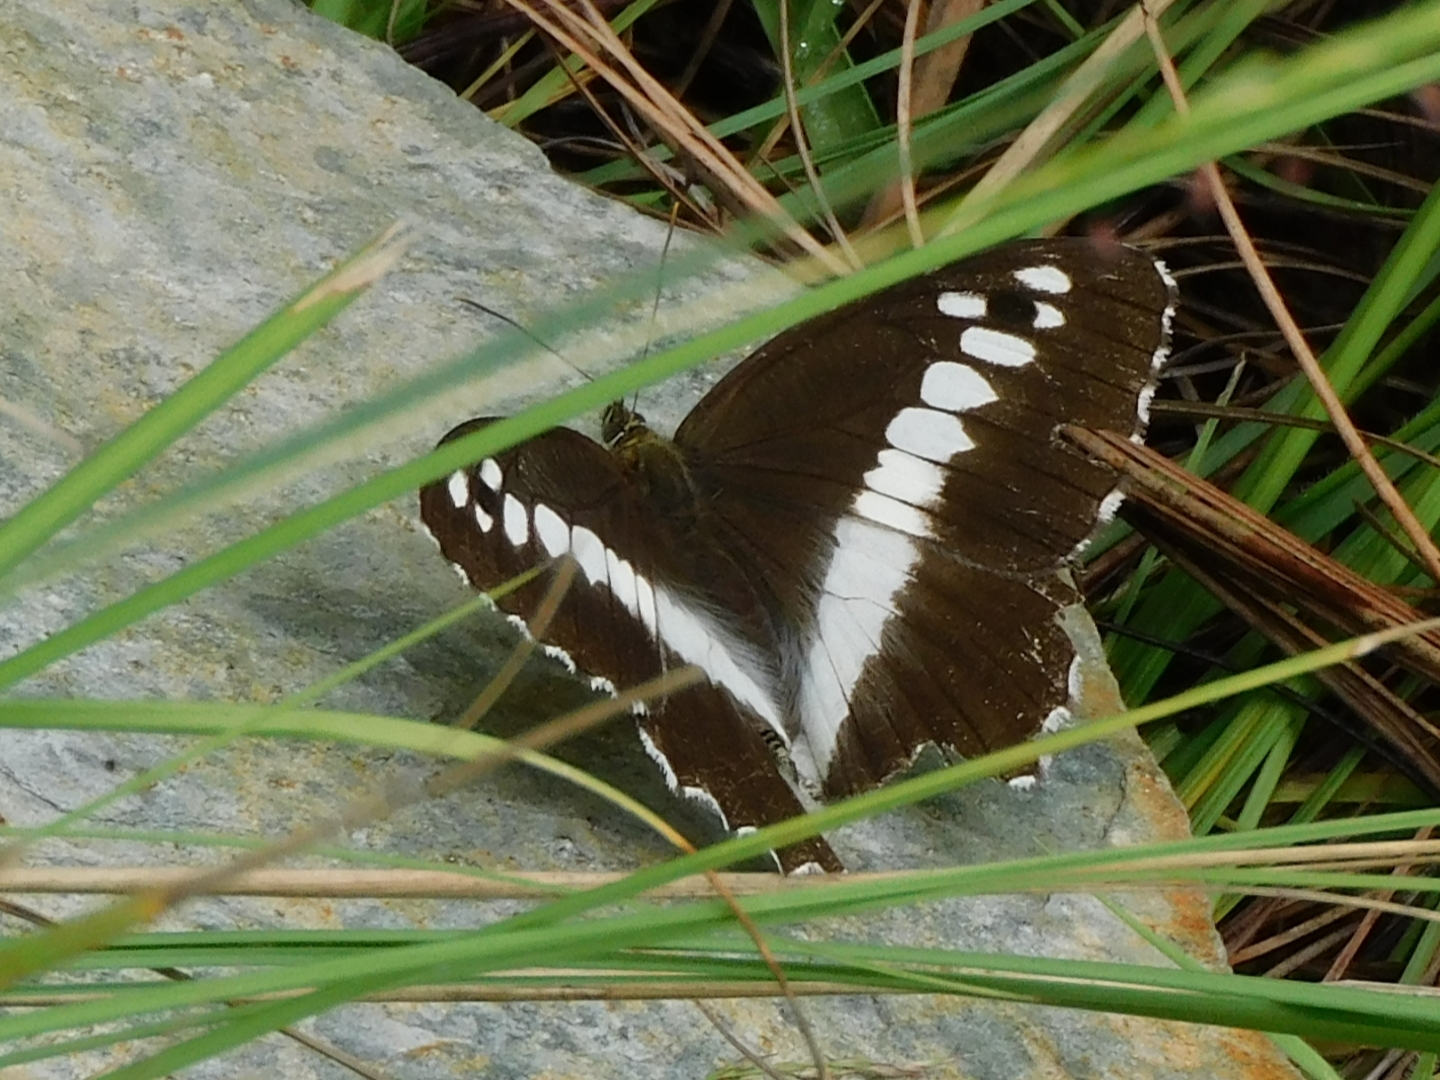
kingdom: Animalia
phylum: Arthropoda
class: Insecta
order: Lepidoptera
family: Nymphalidae
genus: Satyrus
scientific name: Satyrus
